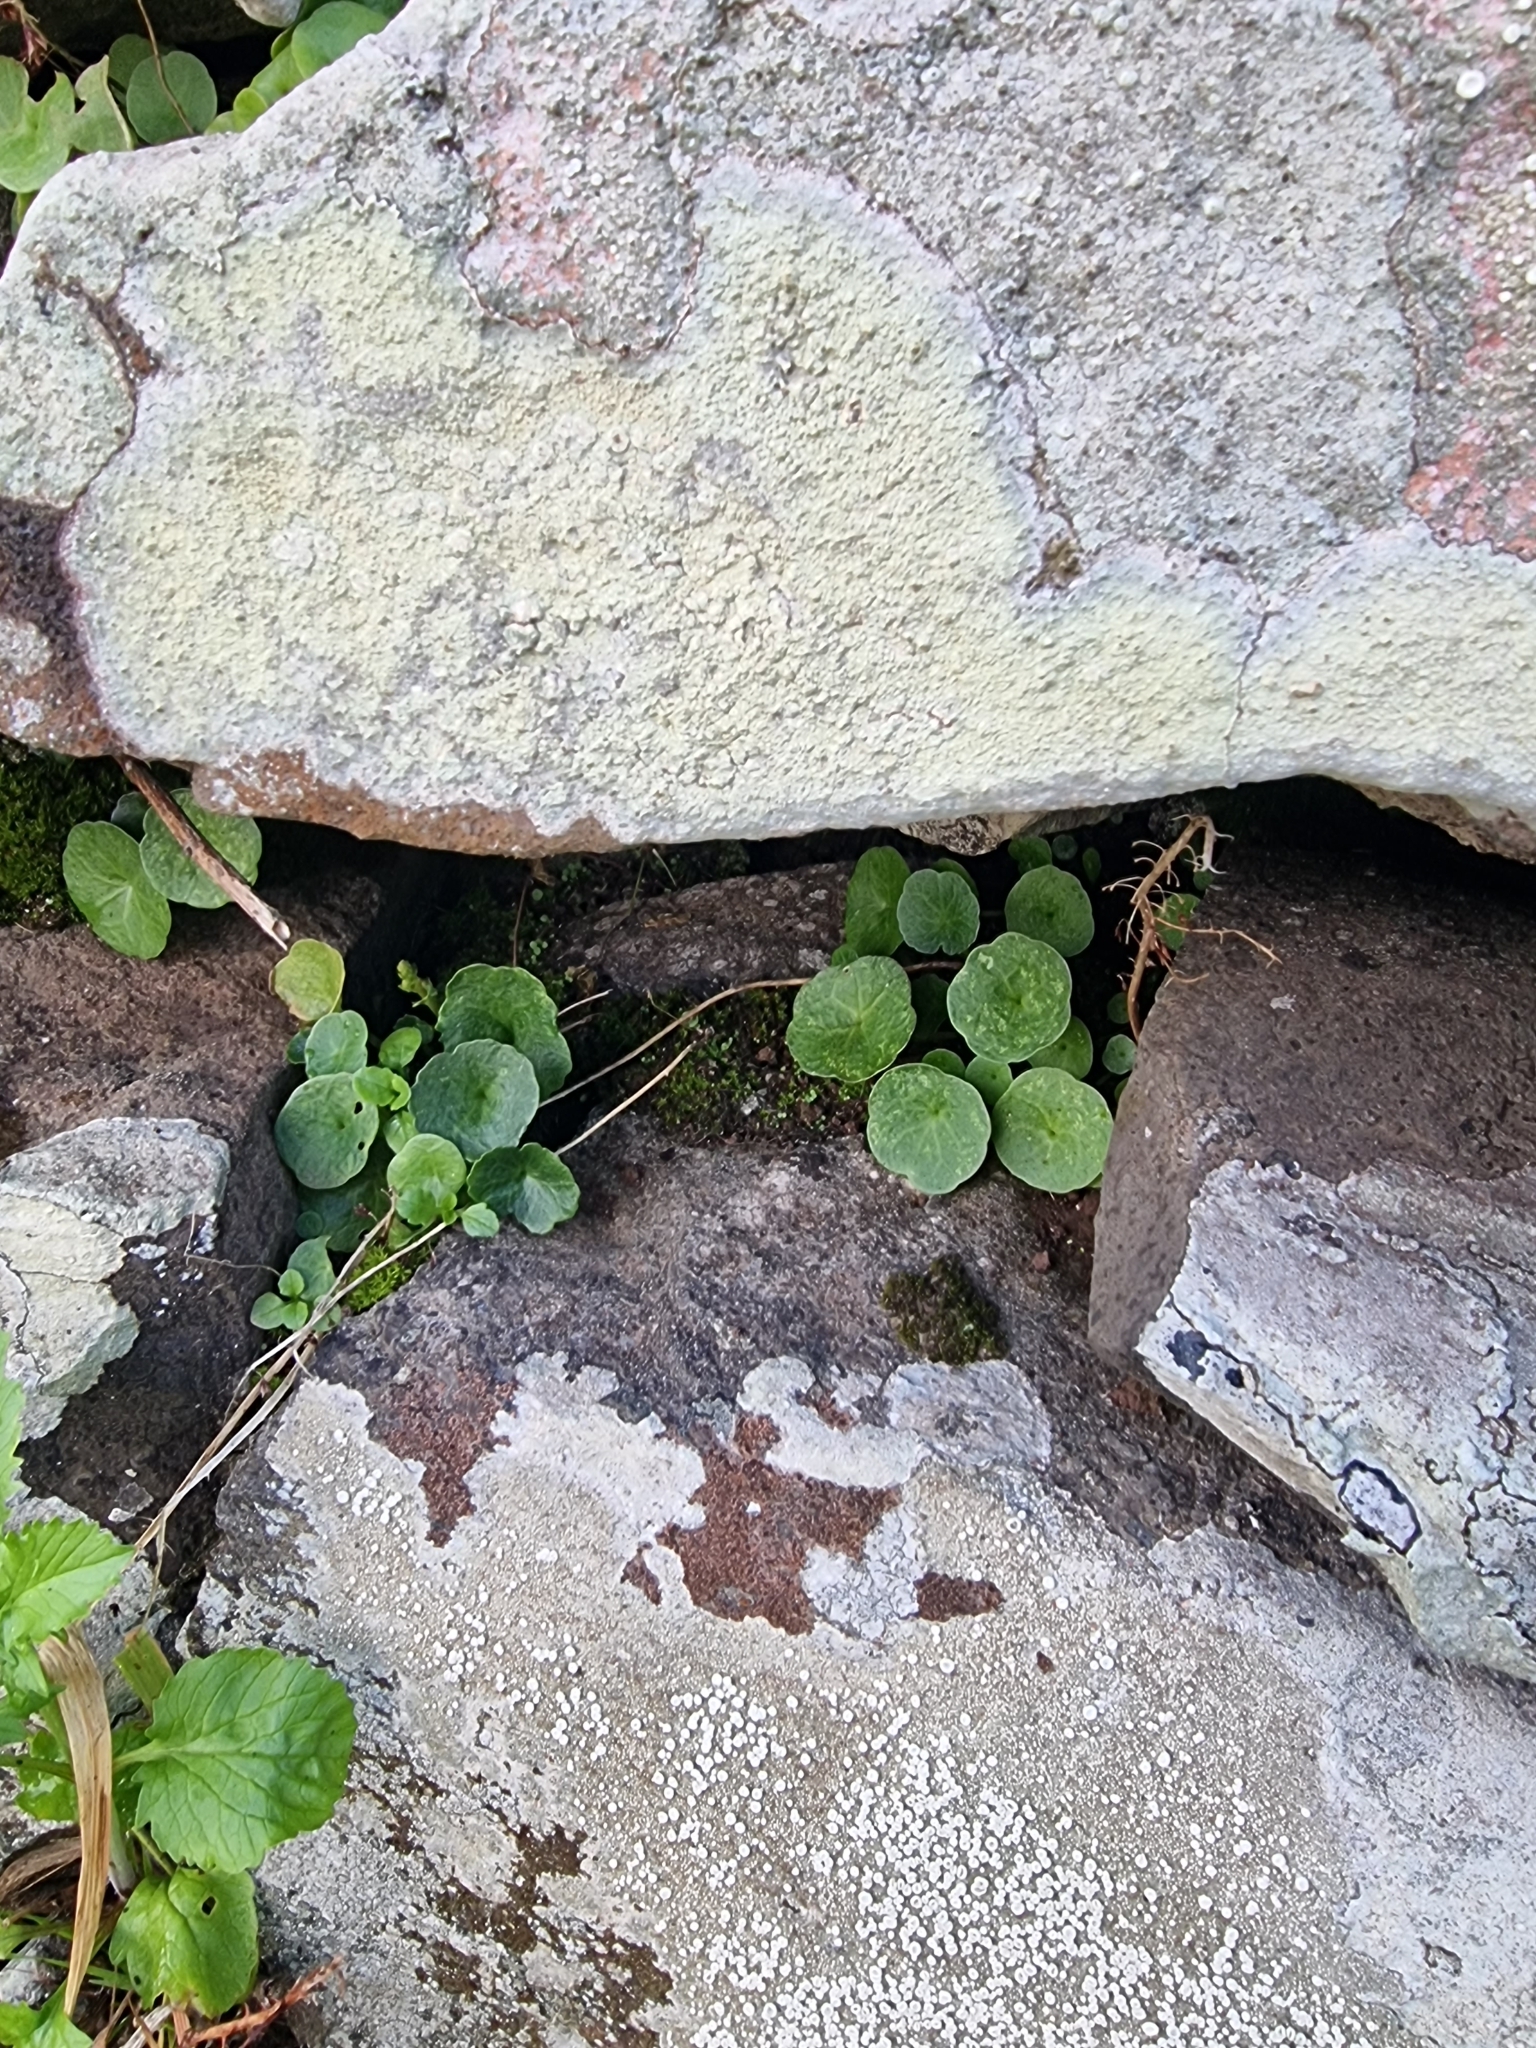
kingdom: Plantae
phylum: Tracheophyta
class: Magnoliopsida
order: Saxifragales
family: Crassulaceae
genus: Umbilicus
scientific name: Umbilicus rupestris
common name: Navelwort
